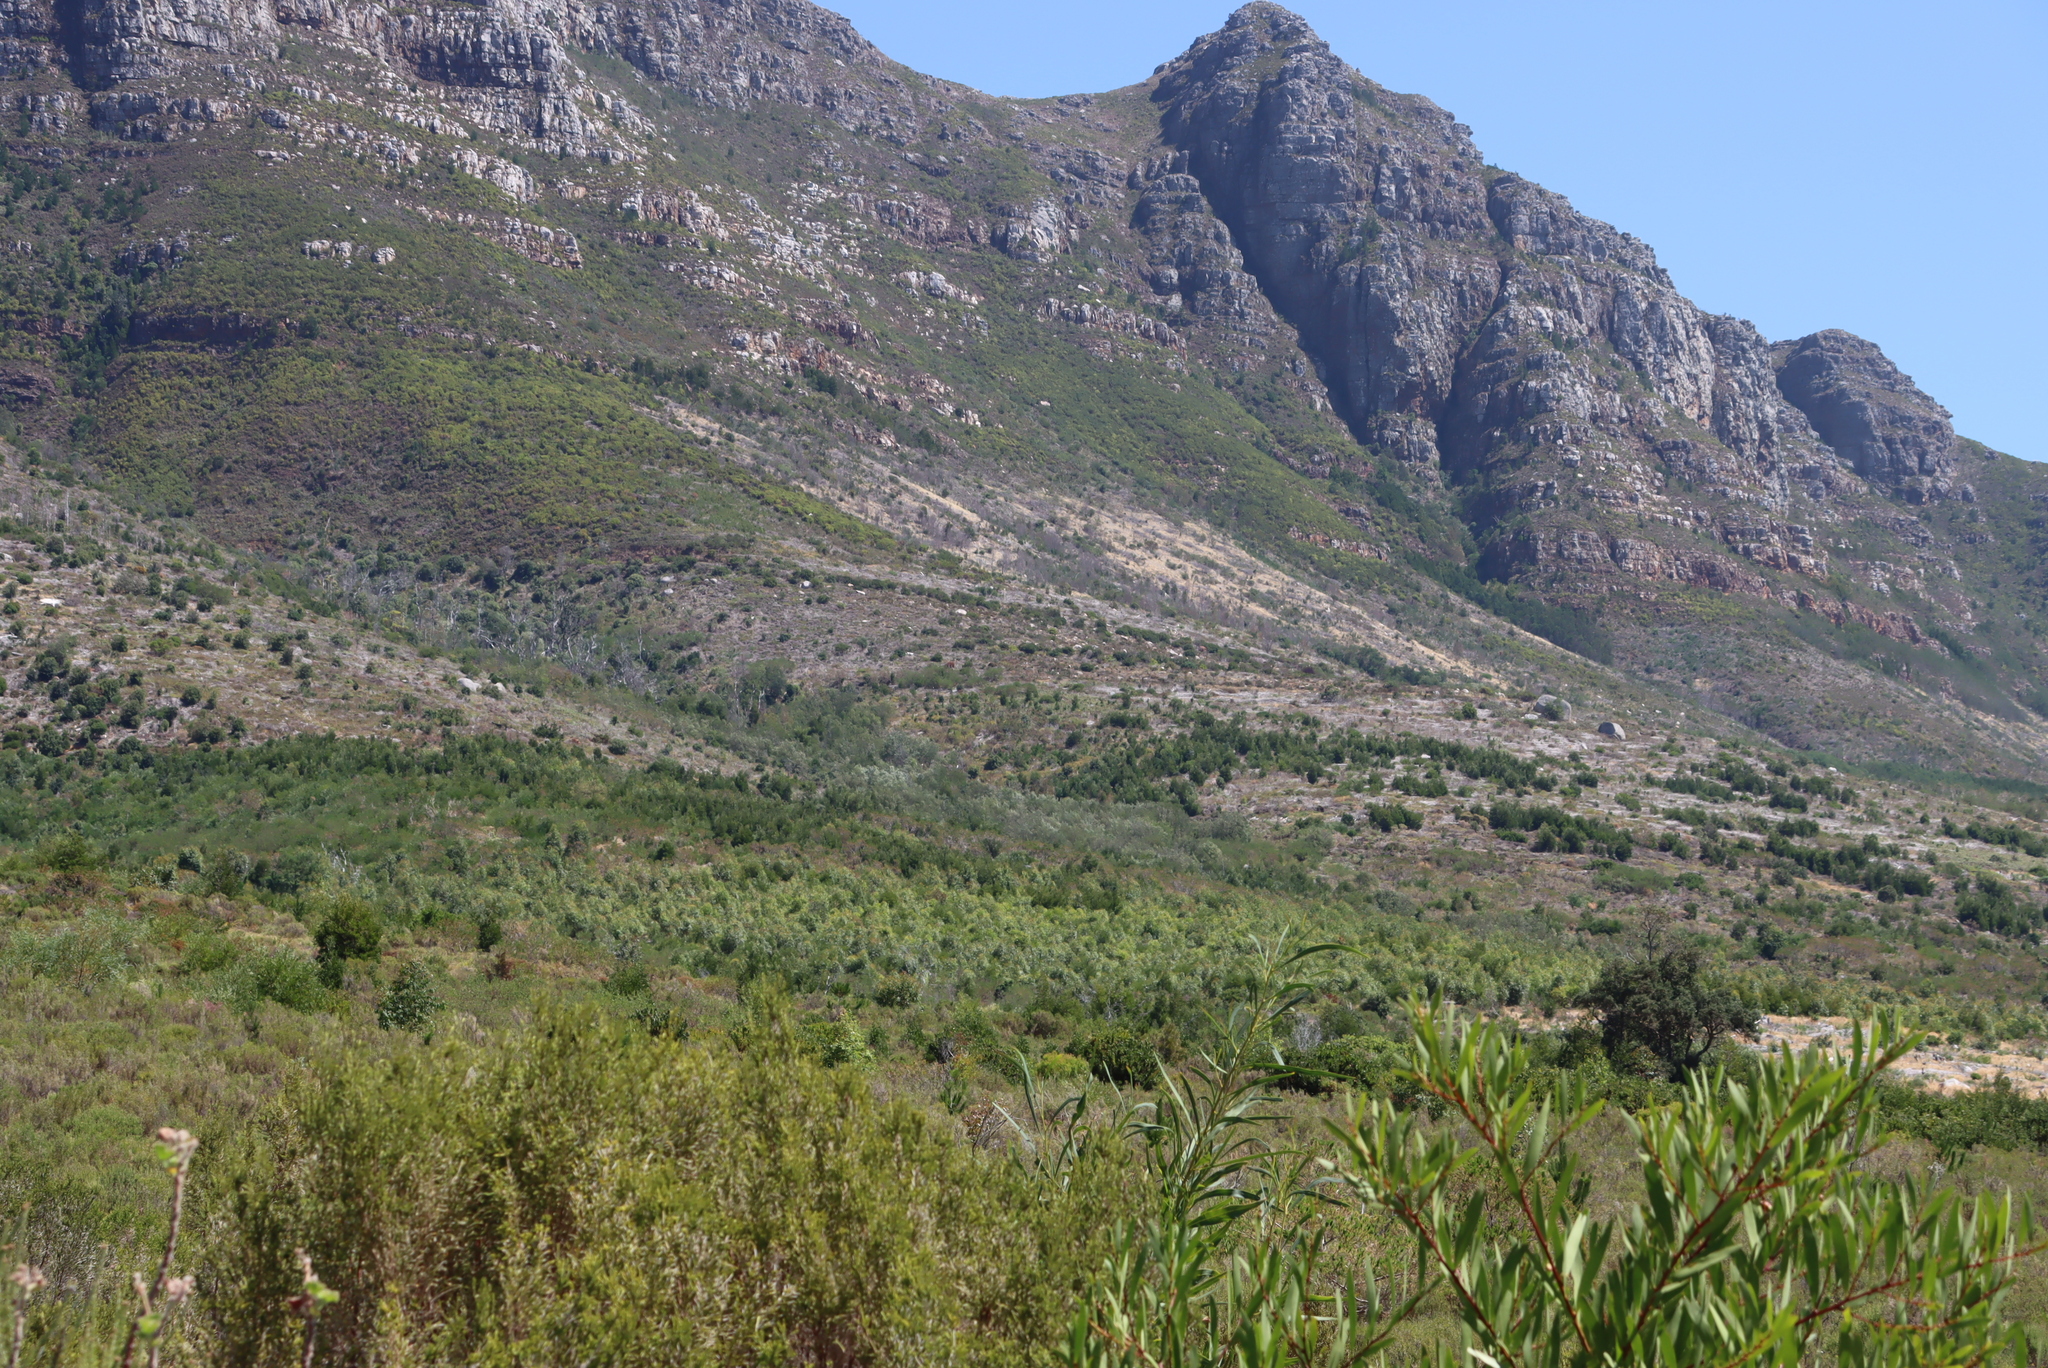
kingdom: Plantae
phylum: Tracheophyta
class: Magnoliopsida
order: Fabales
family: Fabaceae
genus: Acacia
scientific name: Acacia longifolia
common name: Sydney golden wattle
